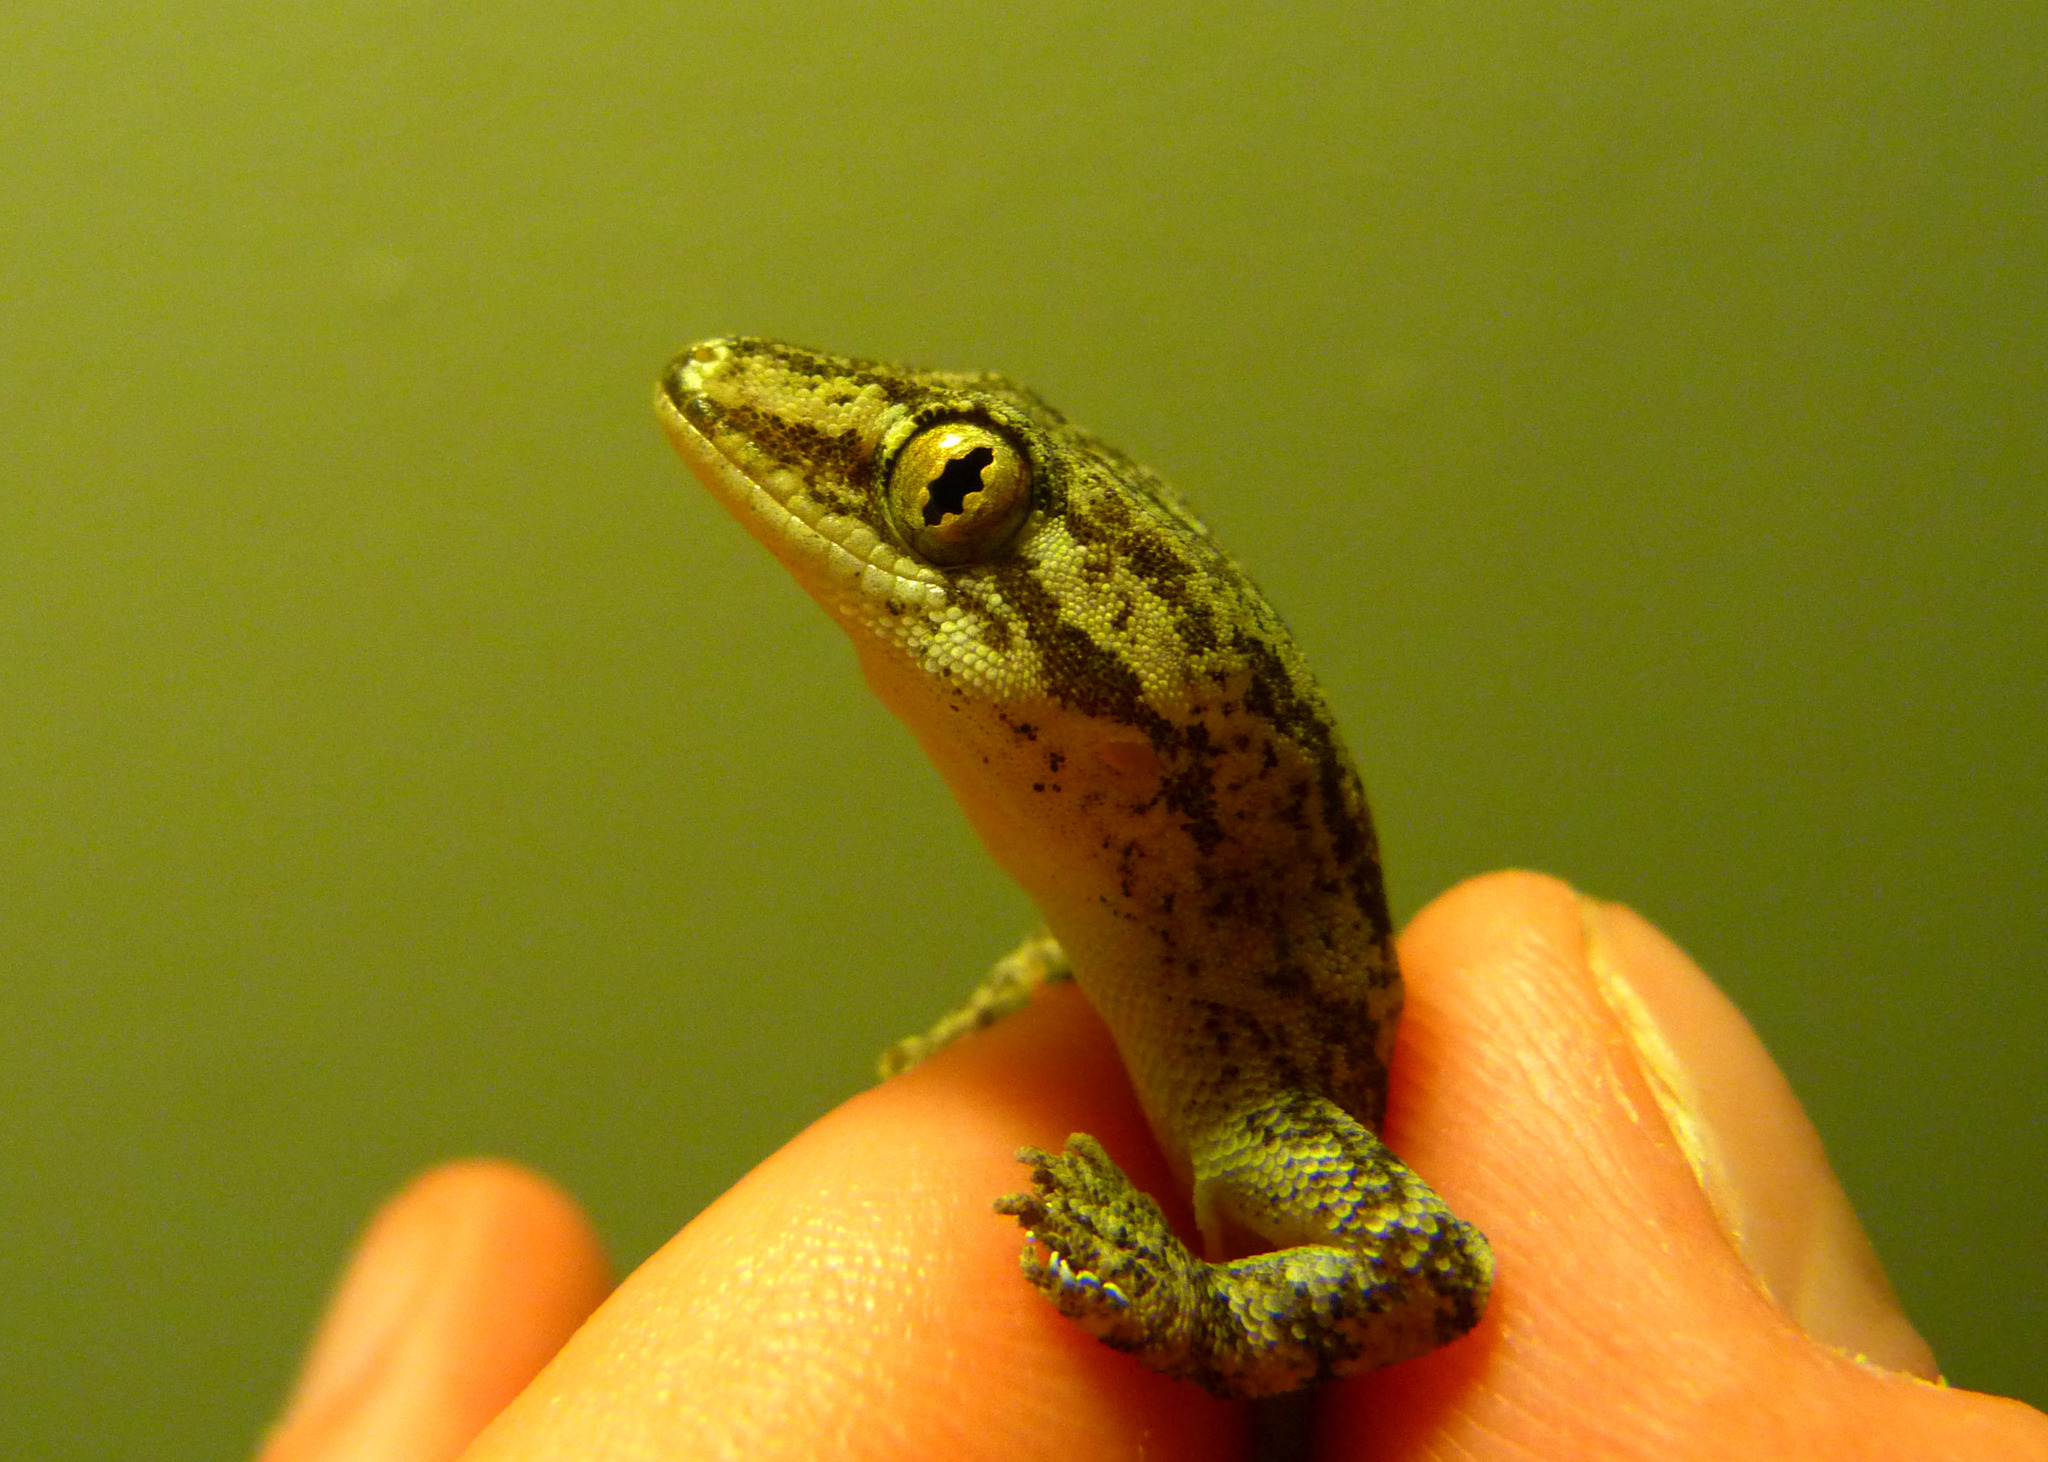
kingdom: Animalia
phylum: Chordata
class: Squamata
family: Gekkonidae
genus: Hemidactylus
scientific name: Hemidactylus frenatus
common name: Common house gecko
